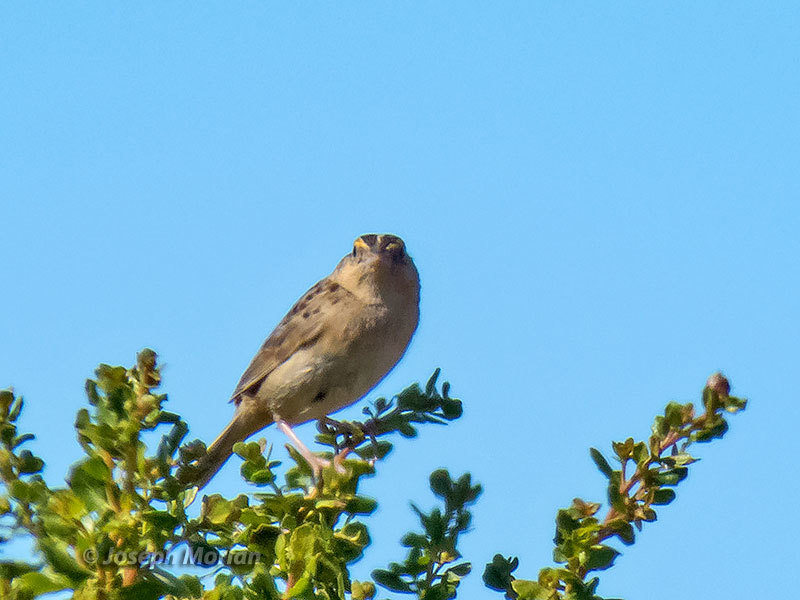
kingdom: Animalia
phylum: Chordata
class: Aves
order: Passeriformes
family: Passerellidae
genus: Ammodramus
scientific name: Ammodramus savannarum
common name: Grasshopper sparrow
